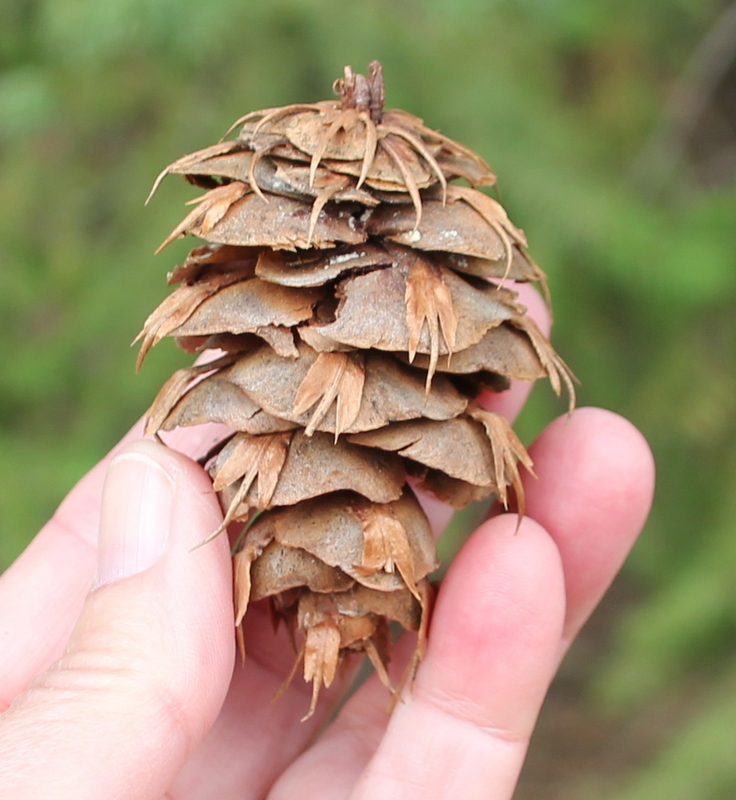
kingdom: Plantae
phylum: Tracheophyta
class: Pinopsida
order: Pinales
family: Pinaceae
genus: Pseudotsuga
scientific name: Pseudotsuga menziesii
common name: Douglas fir
